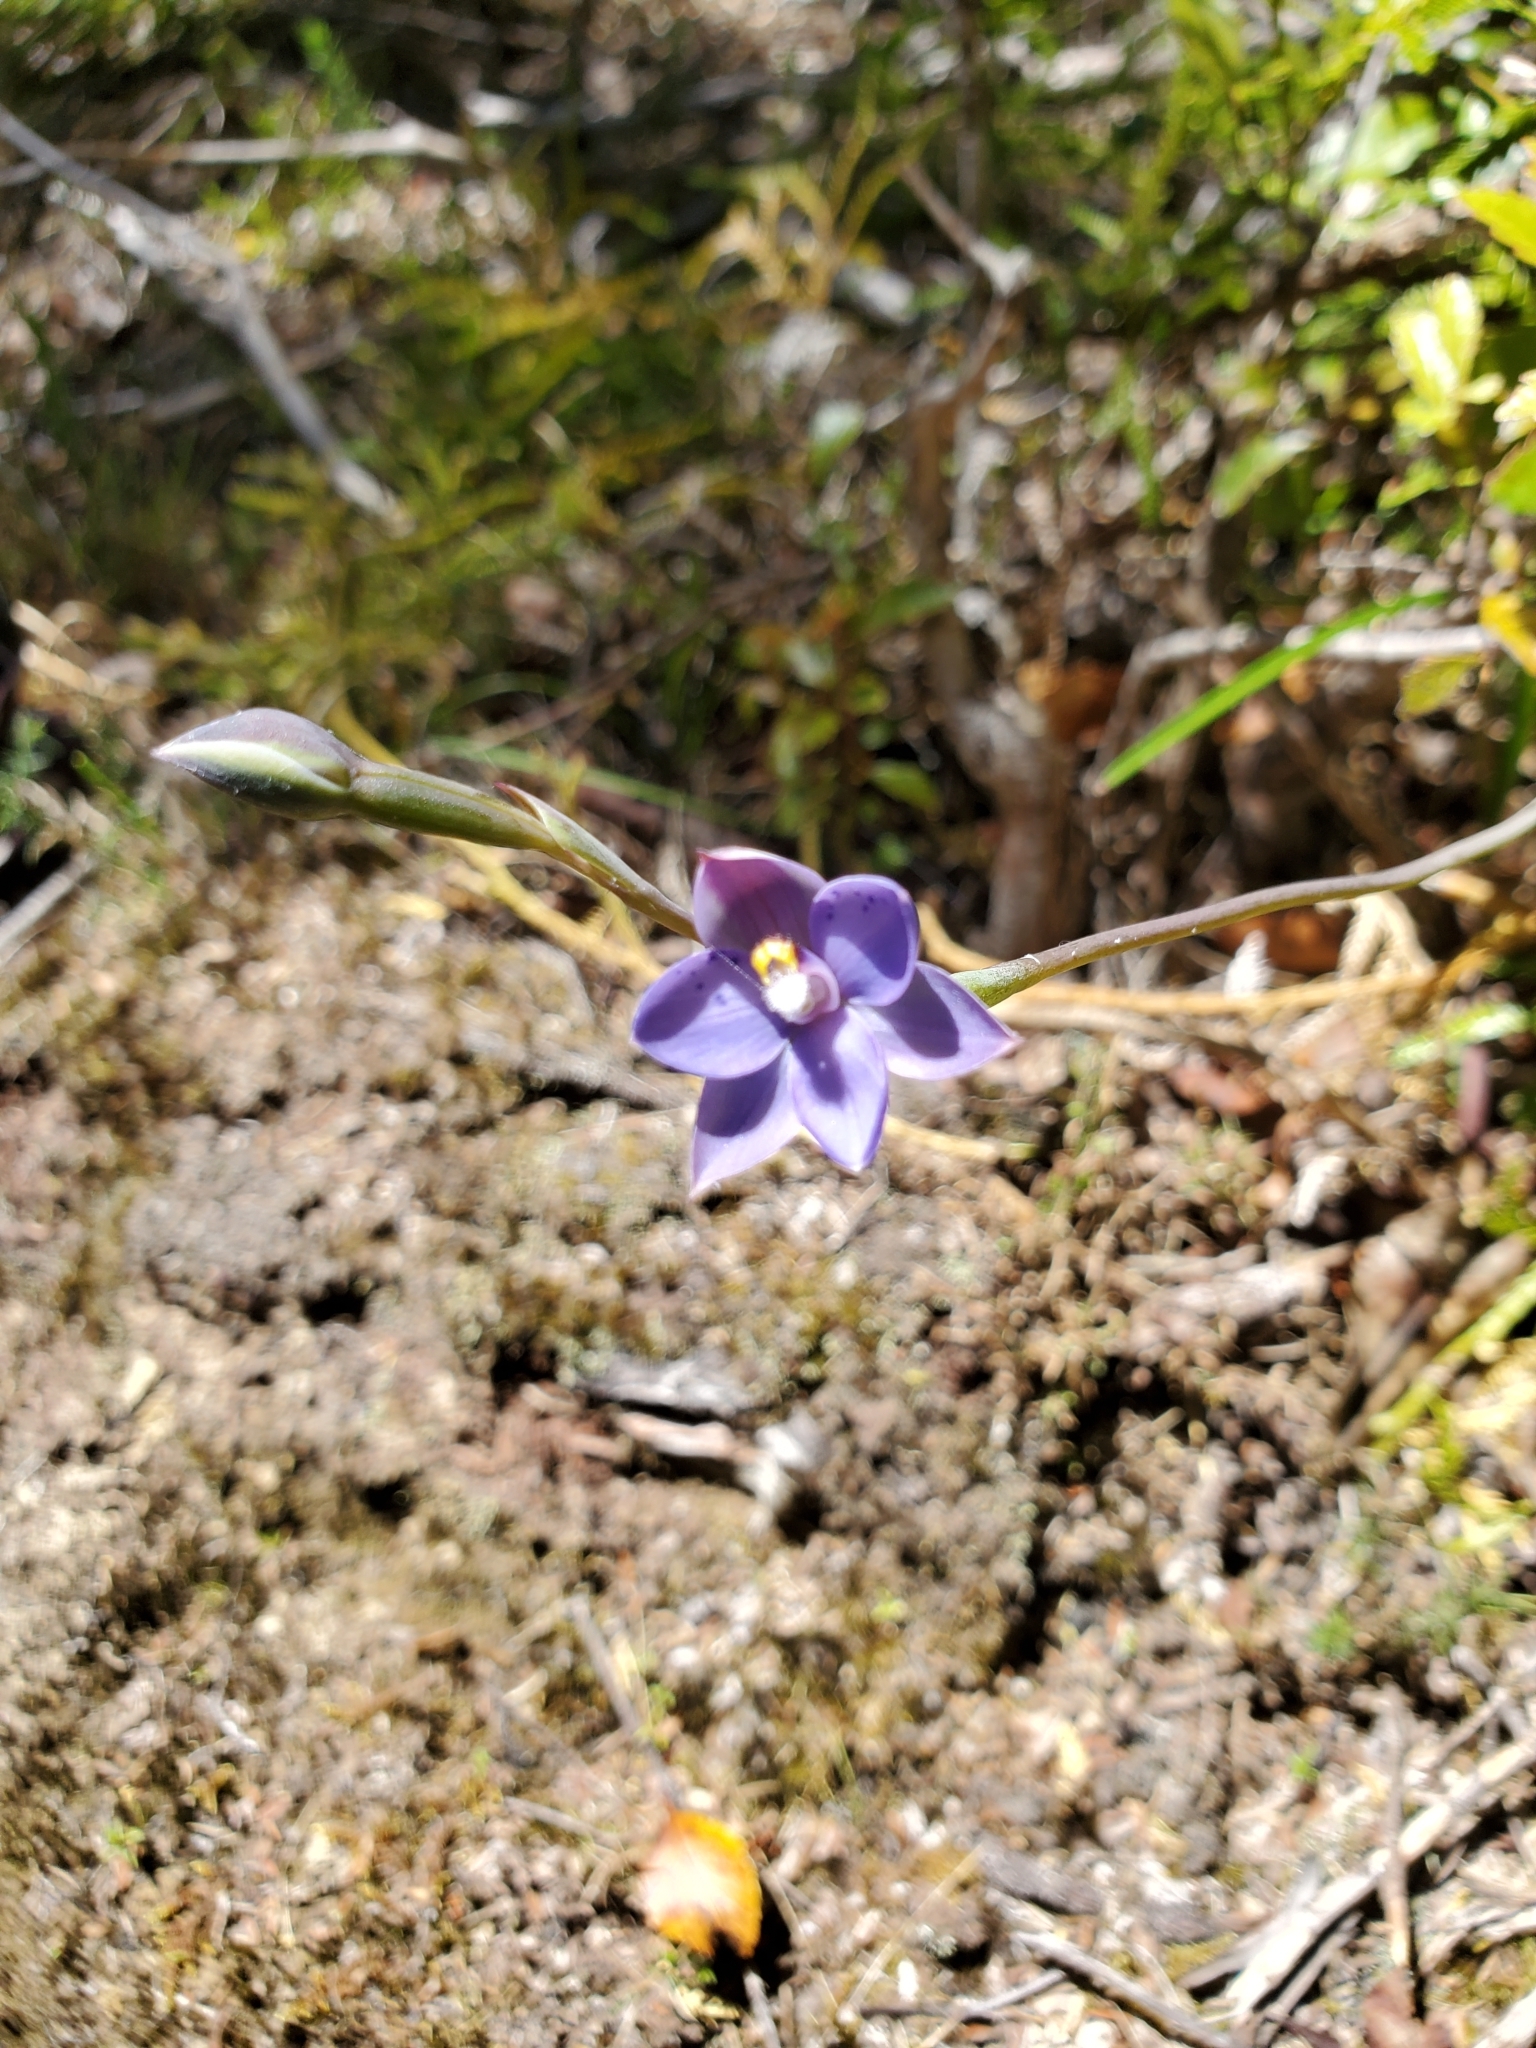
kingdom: Plantae
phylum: Tracheophyta
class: Liliopsida
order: Asparagales
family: Orchidaceae
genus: Thelymitra
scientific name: Thelymitra nervosa
